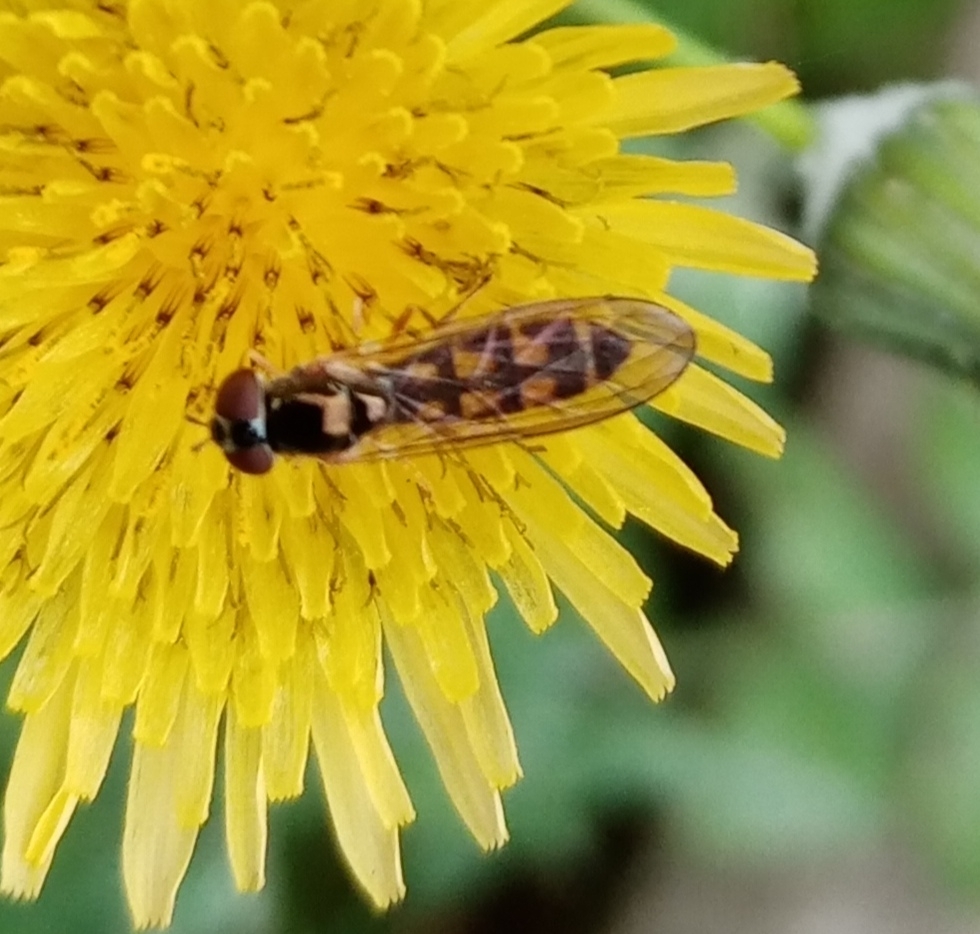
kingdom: Animalia
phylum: Arthropoda
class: Insecta
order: Diptera
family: Syrphidae
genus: Melanostoma
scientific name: Melanostoma
